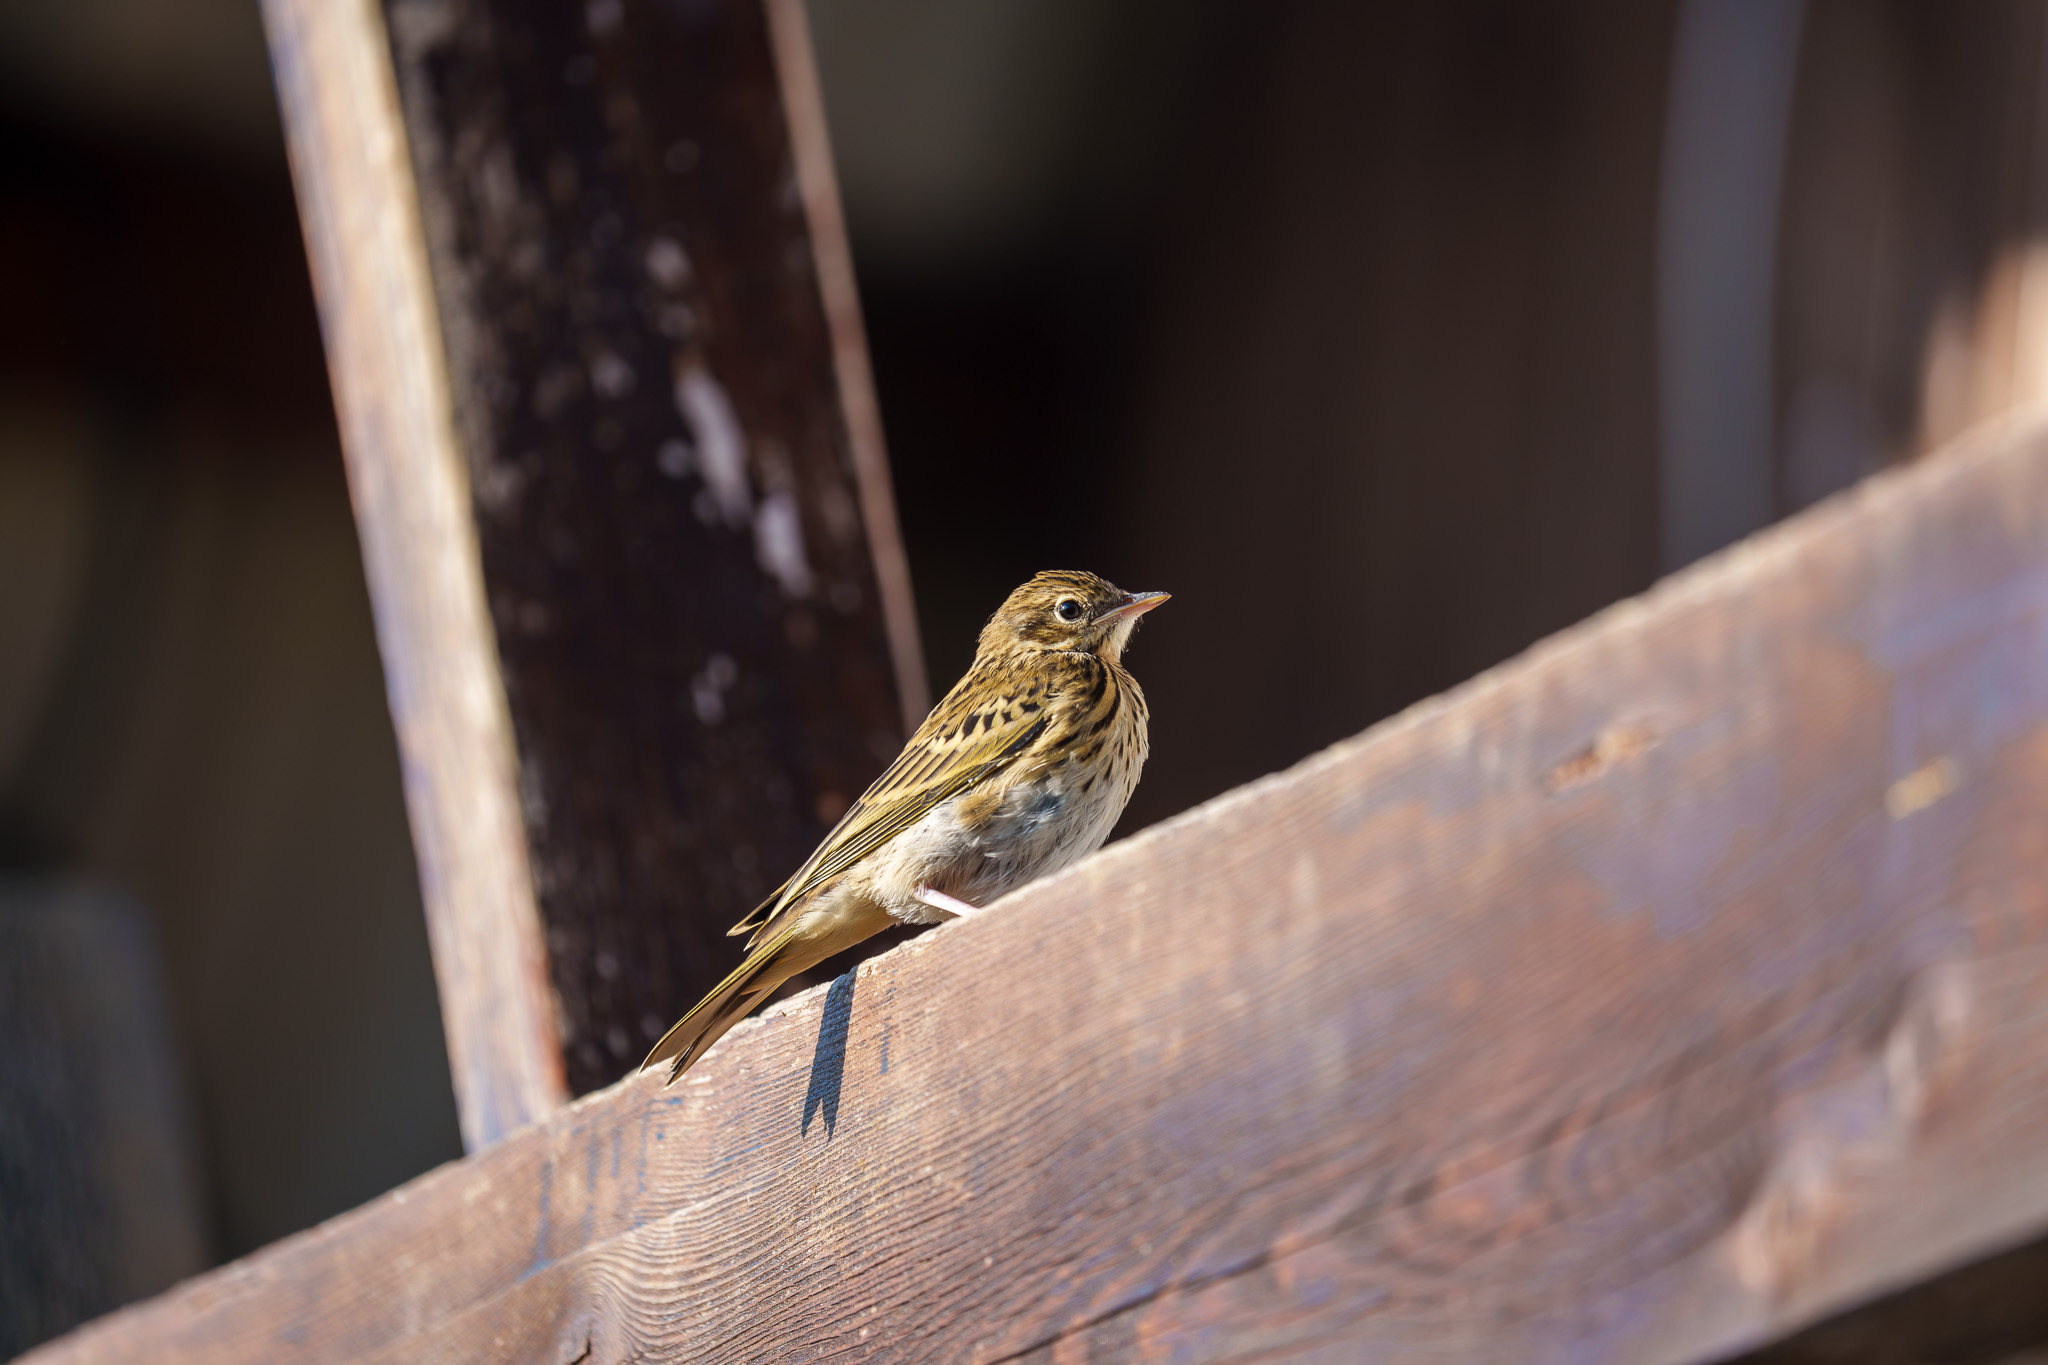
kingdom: Animalia
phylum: Chordata
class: Aves
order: Passeriformes
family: Motacillidae
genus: Anthus
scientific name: Anthus trivialis
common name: Tree pipit
